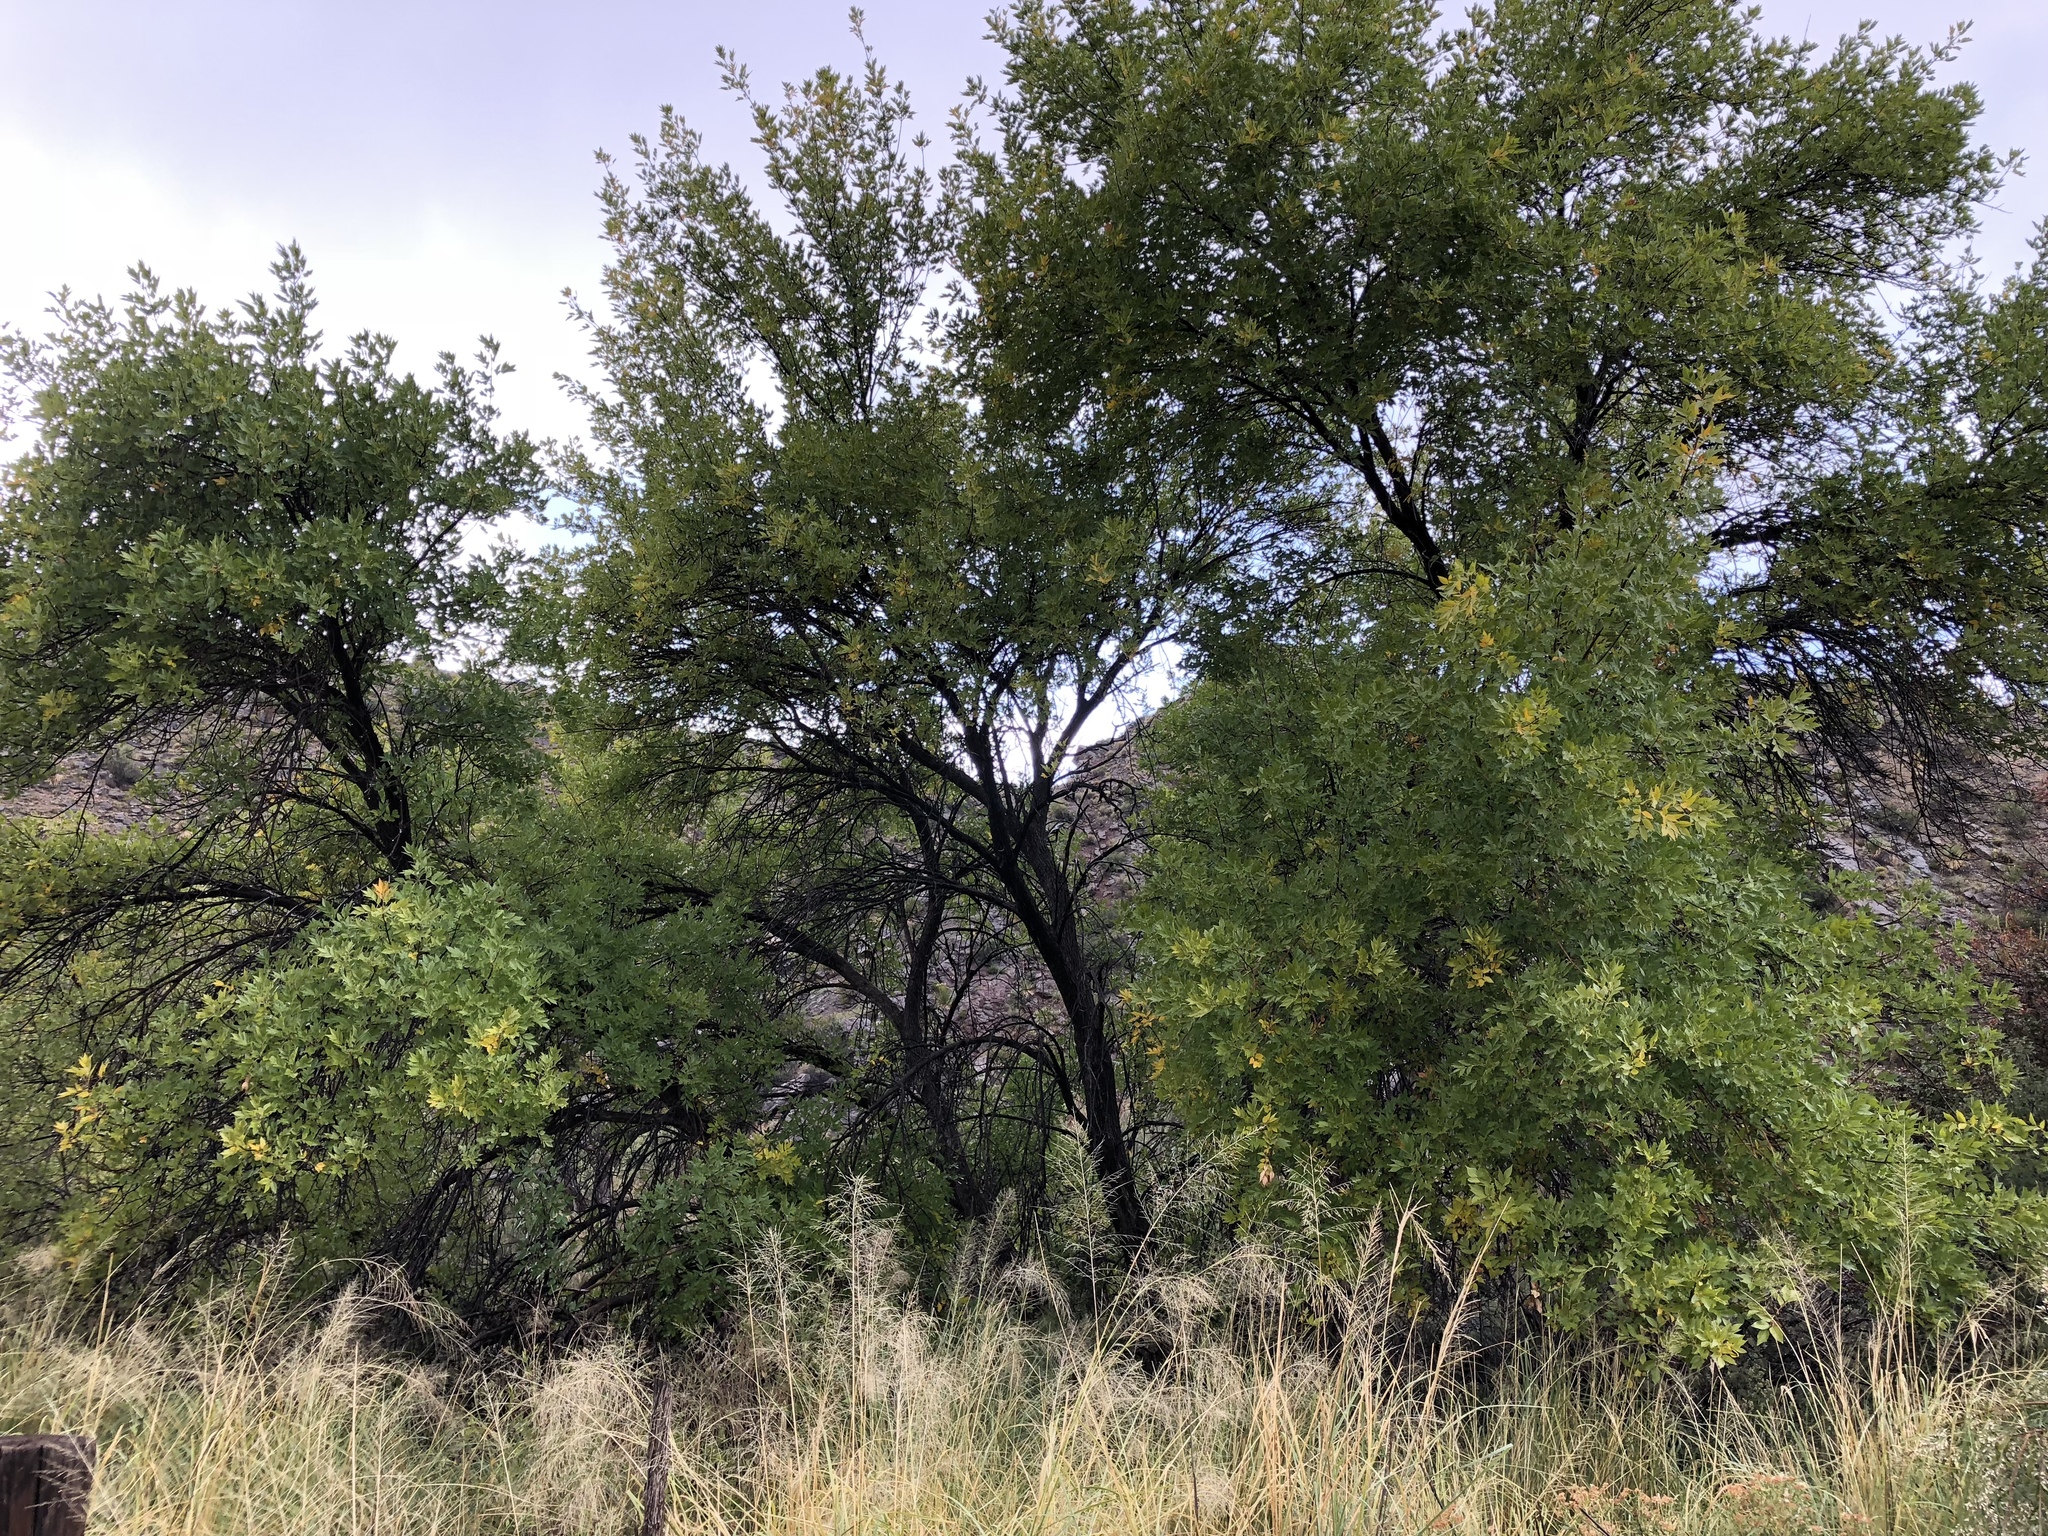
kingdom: Plantae
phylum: Tracheophyta
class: Magnoliopsida
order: Malpighiales
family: Salicaceae
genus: Populus
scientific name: Populus fremontii
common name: Fremont's cottonwood
